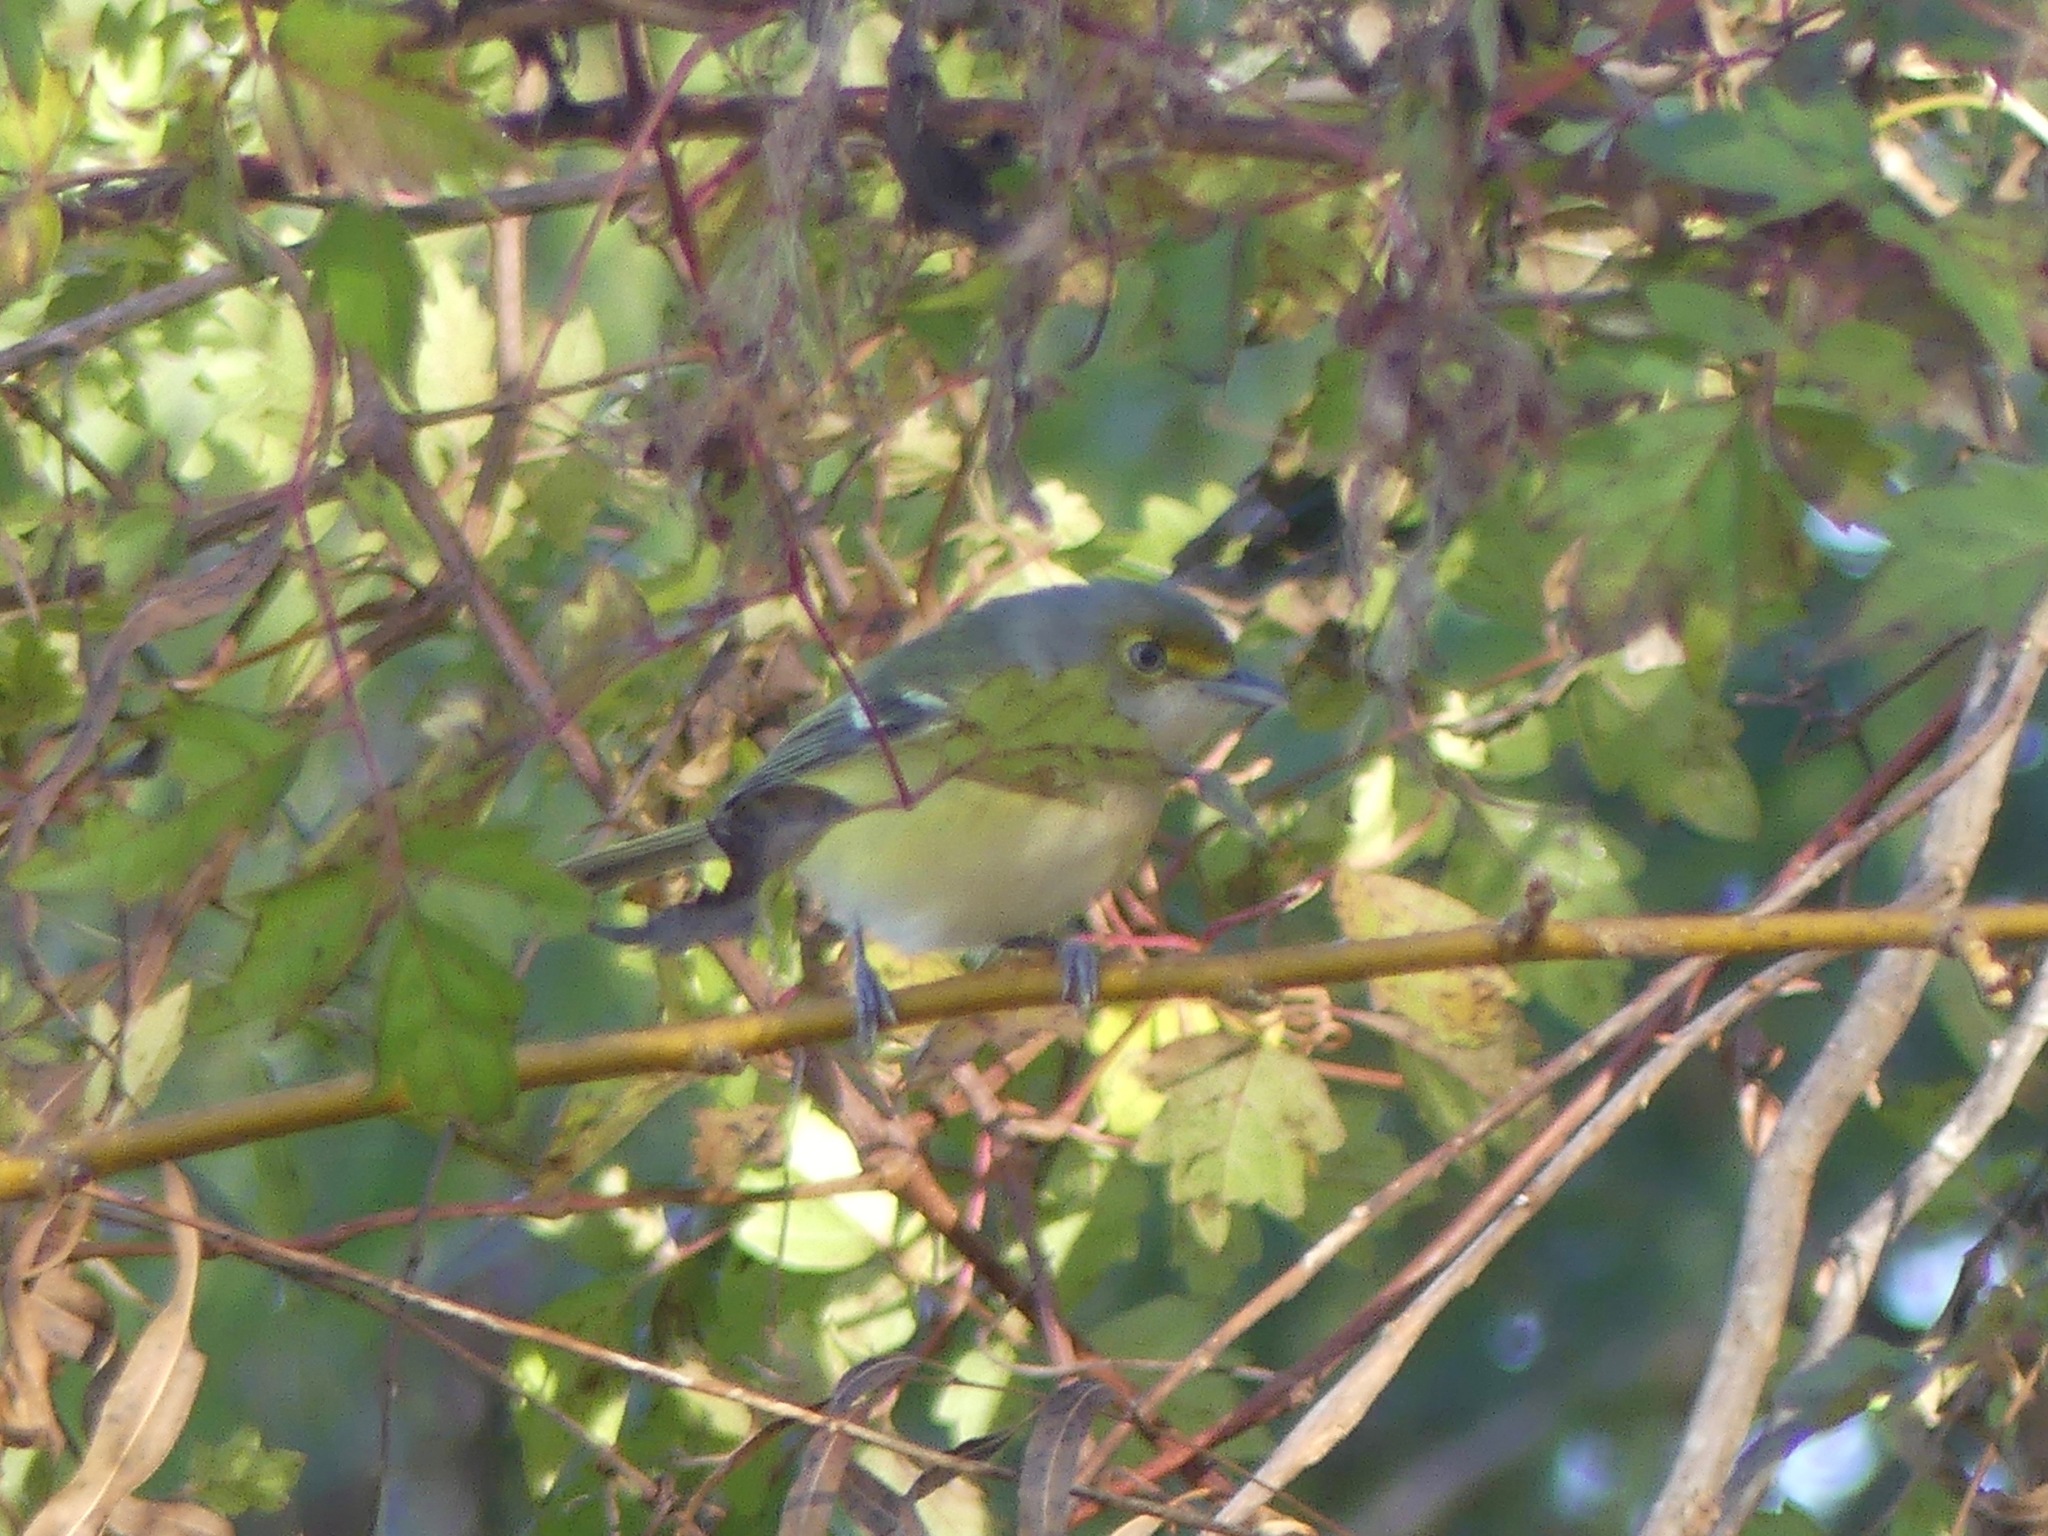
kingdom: Animalia
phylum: Chordata
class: Aves
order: Passeriformes
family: Vireonidae
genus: Vireo
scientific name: Vireo griseus
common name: White-eyed vireo
